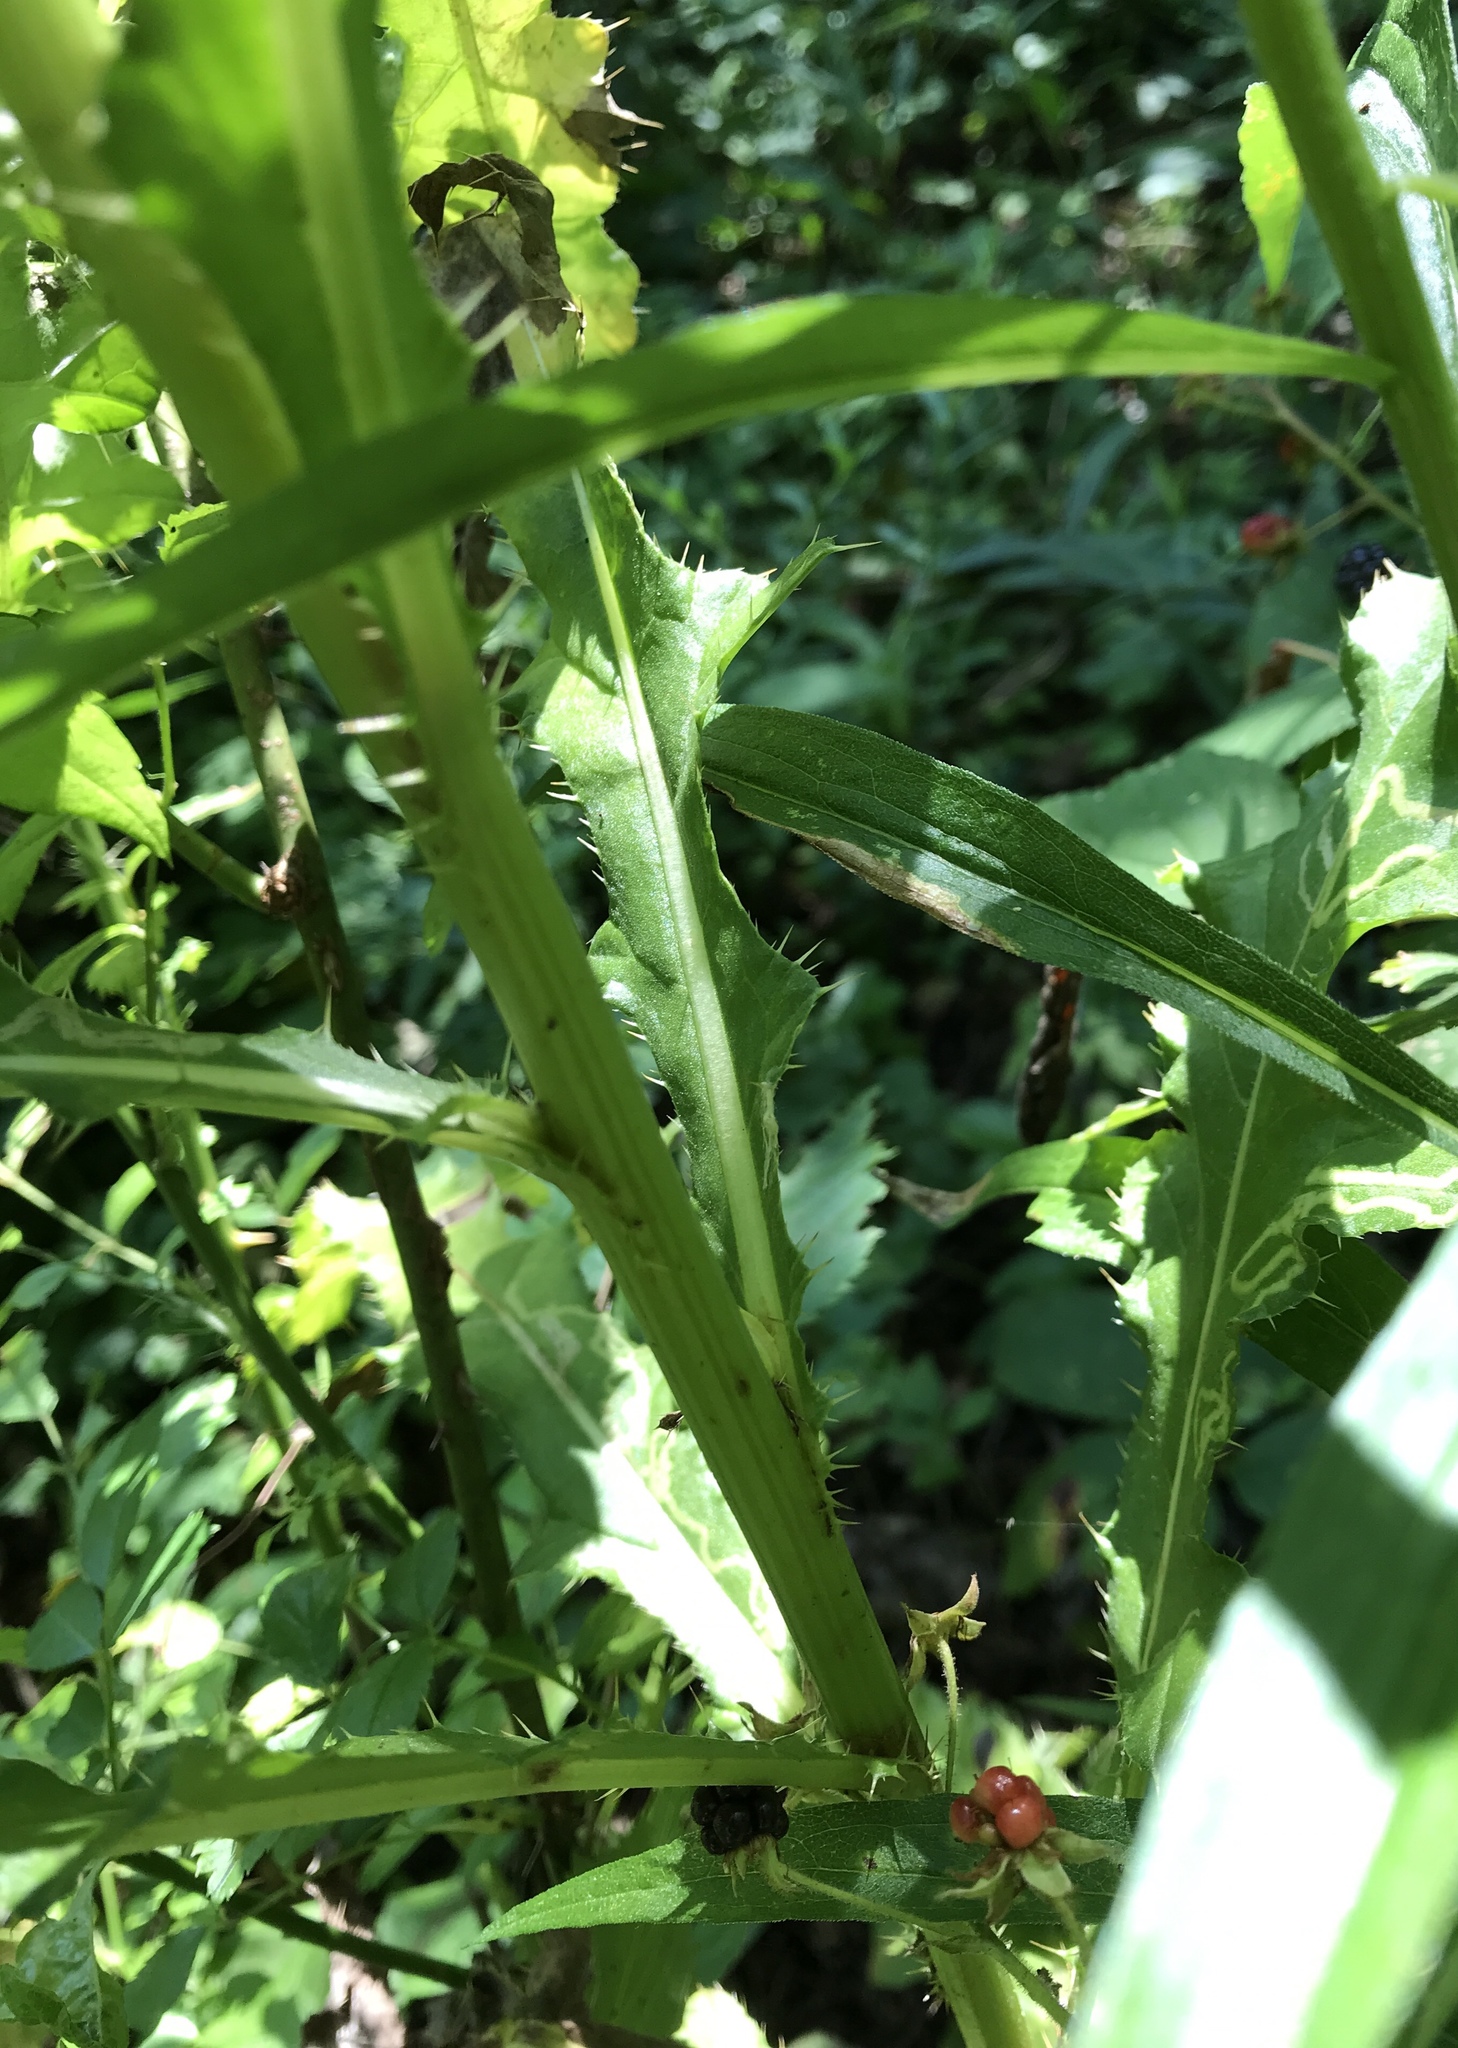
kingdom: Plantae
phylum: Tracheophyta
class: Magnoliopsida
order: Asterales
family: Asteraceae
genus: Cirsium
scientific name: Cirsium arvense
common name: Creeping thistle
